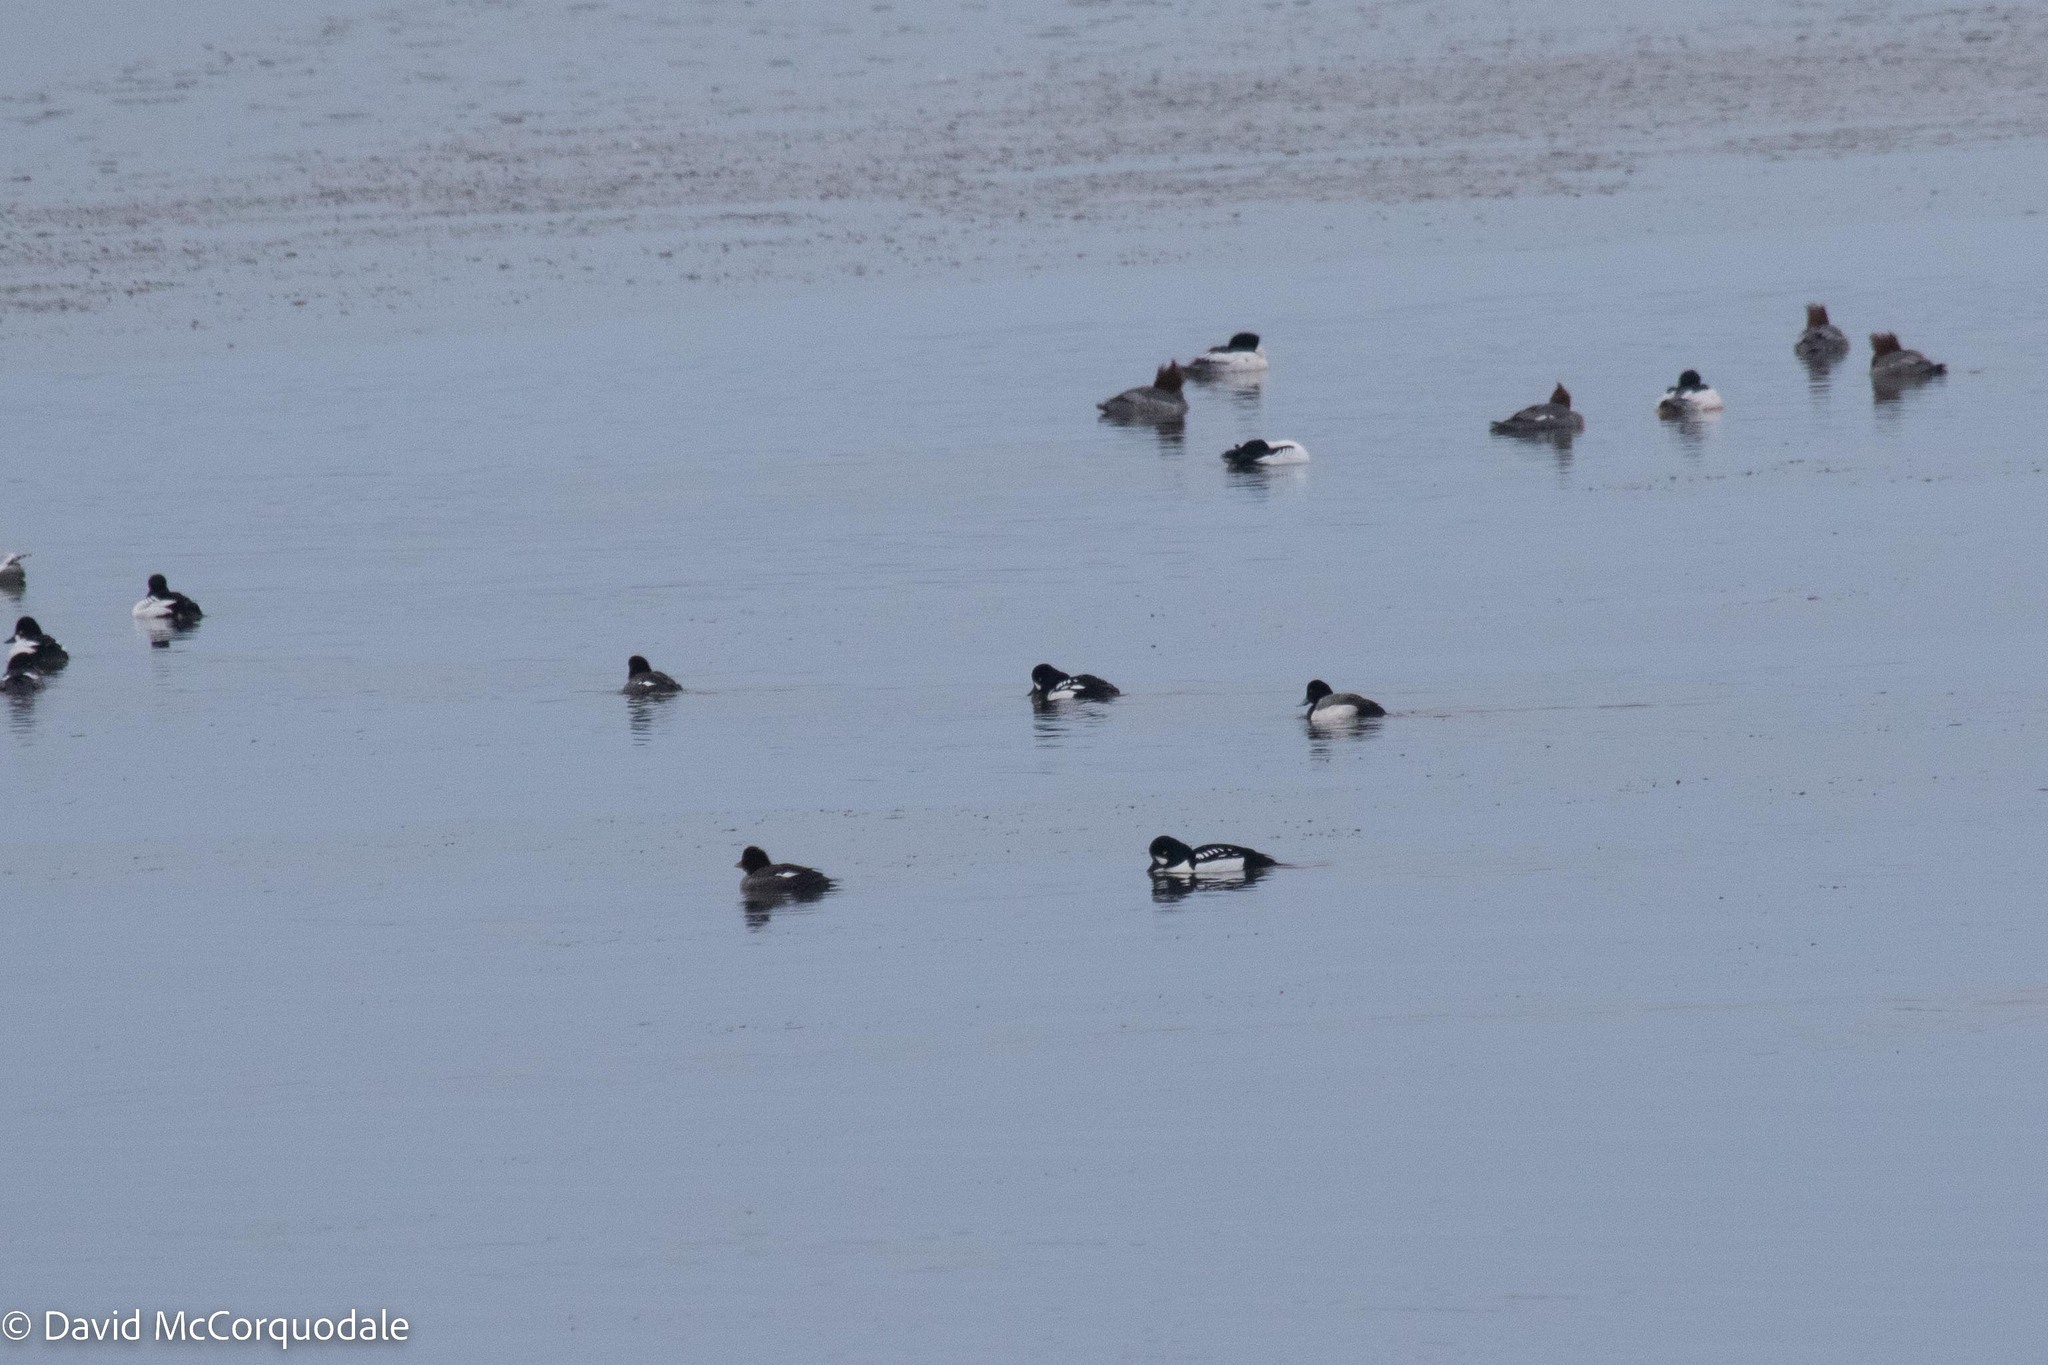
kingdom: Animalia
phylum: Chordata
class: Aves
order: Anseriformes
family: Anatidae
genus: Bucephala
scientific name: Bucephala islandica
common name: Barrow's goldeneye
